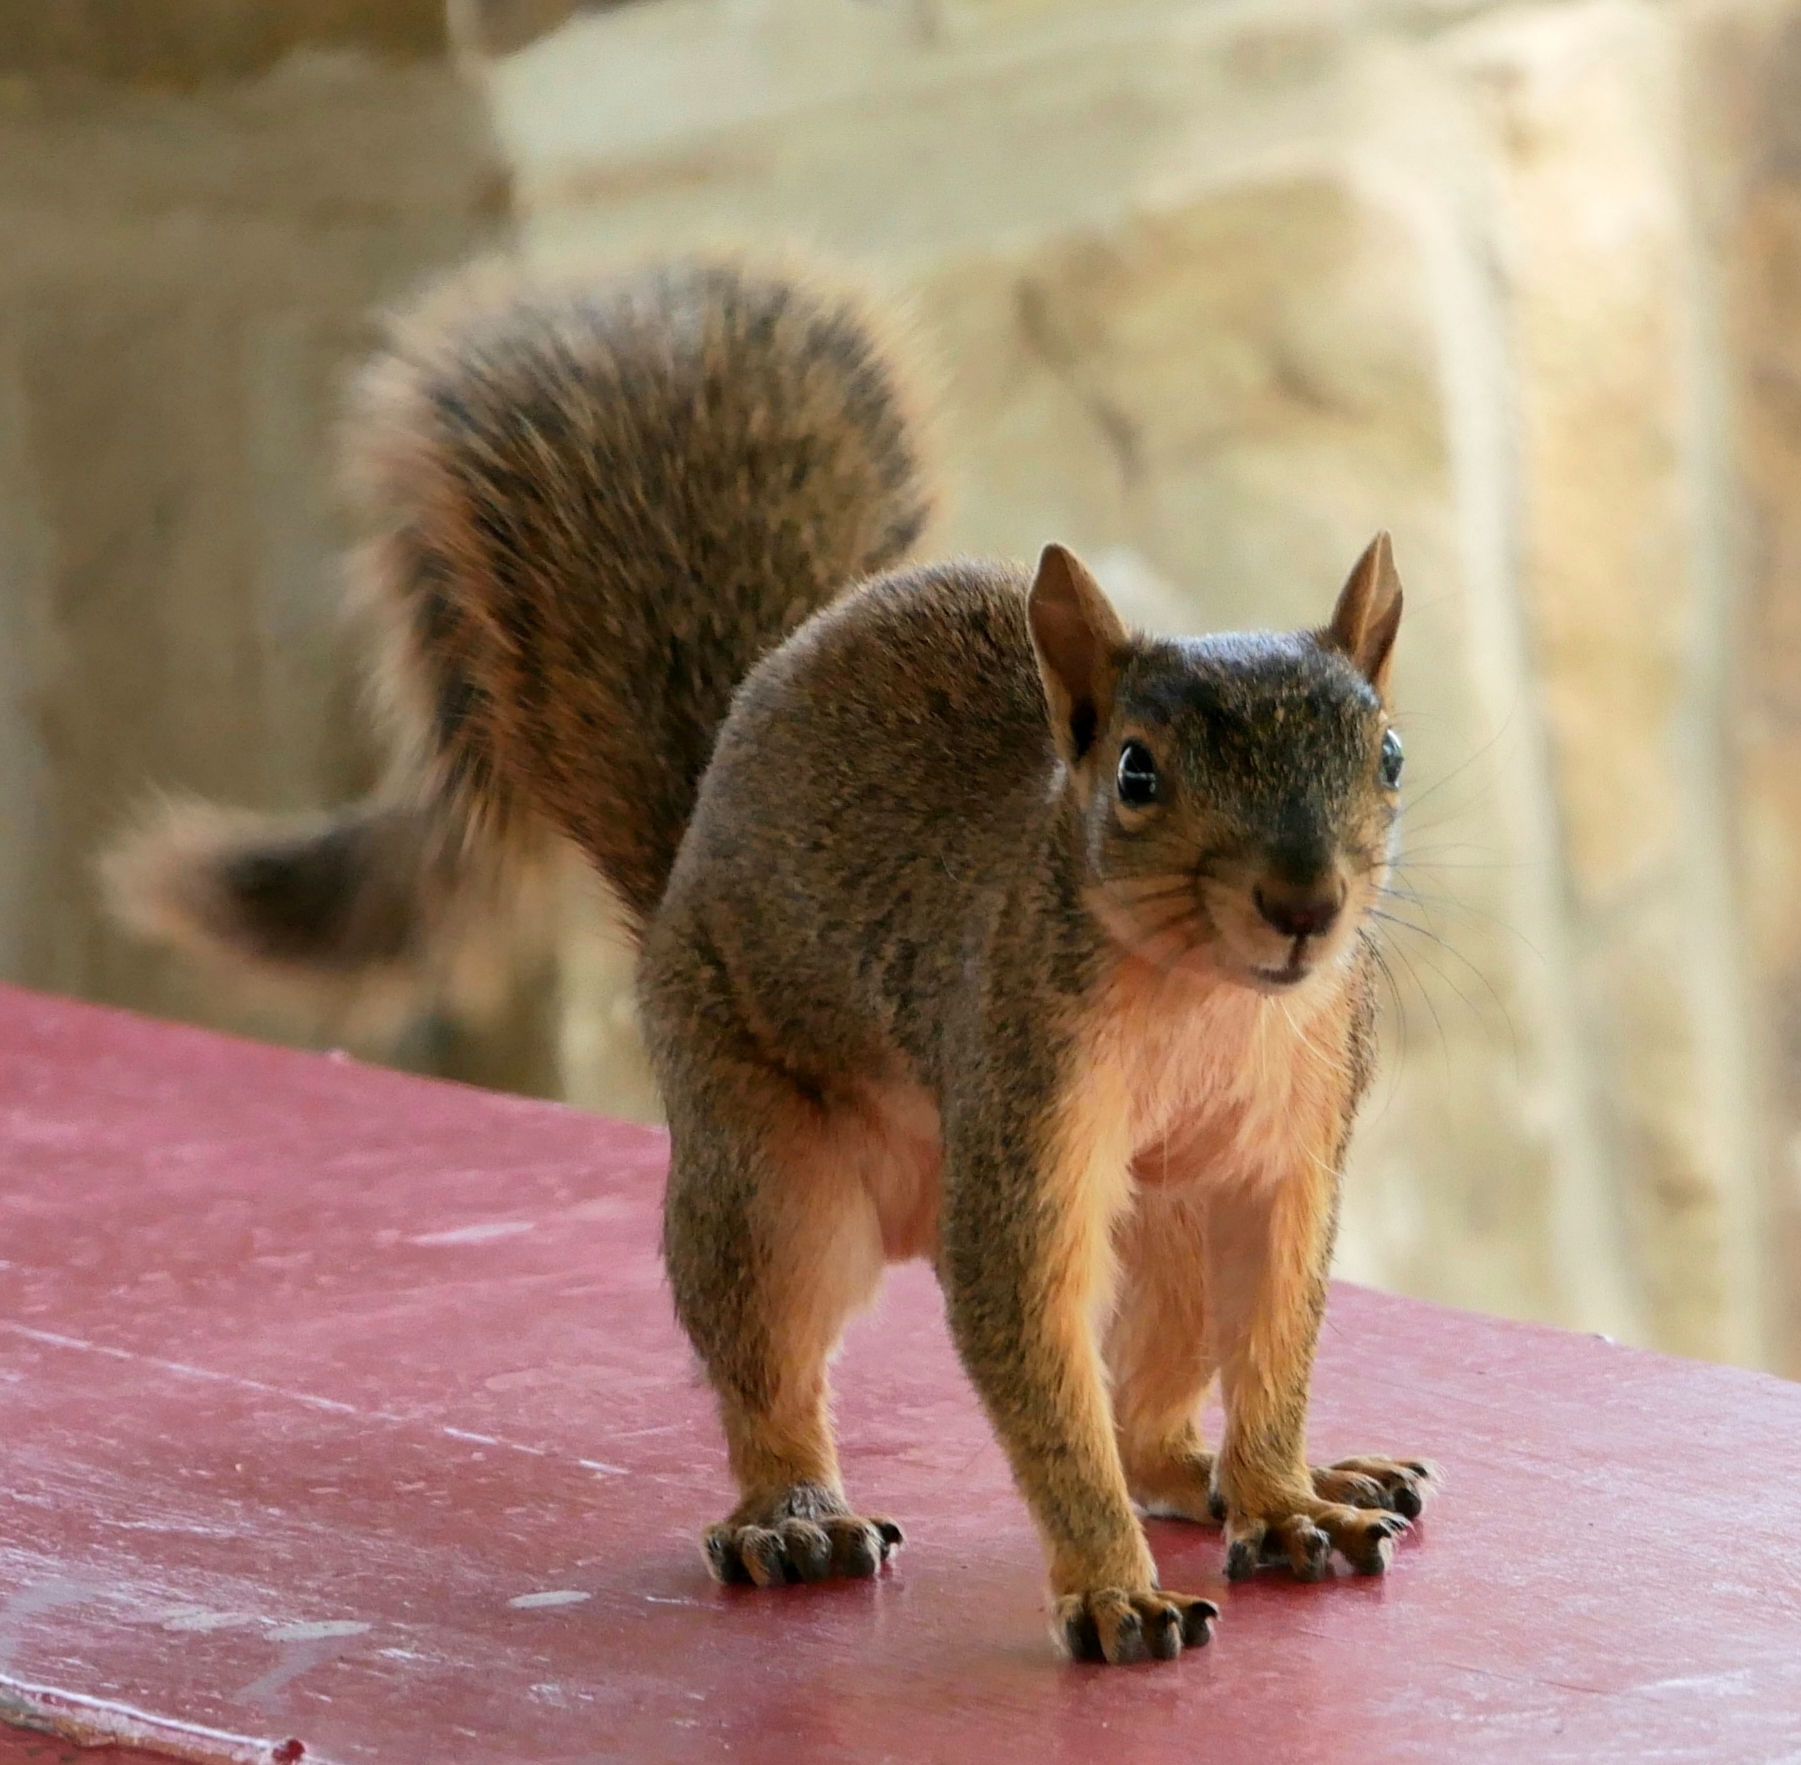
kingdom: Animalia
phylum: Chordata
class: Mammalia
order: Rodentia
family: Sciuridae
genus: Sciurus
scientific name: Sciurus niger
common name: Fox squirrel
